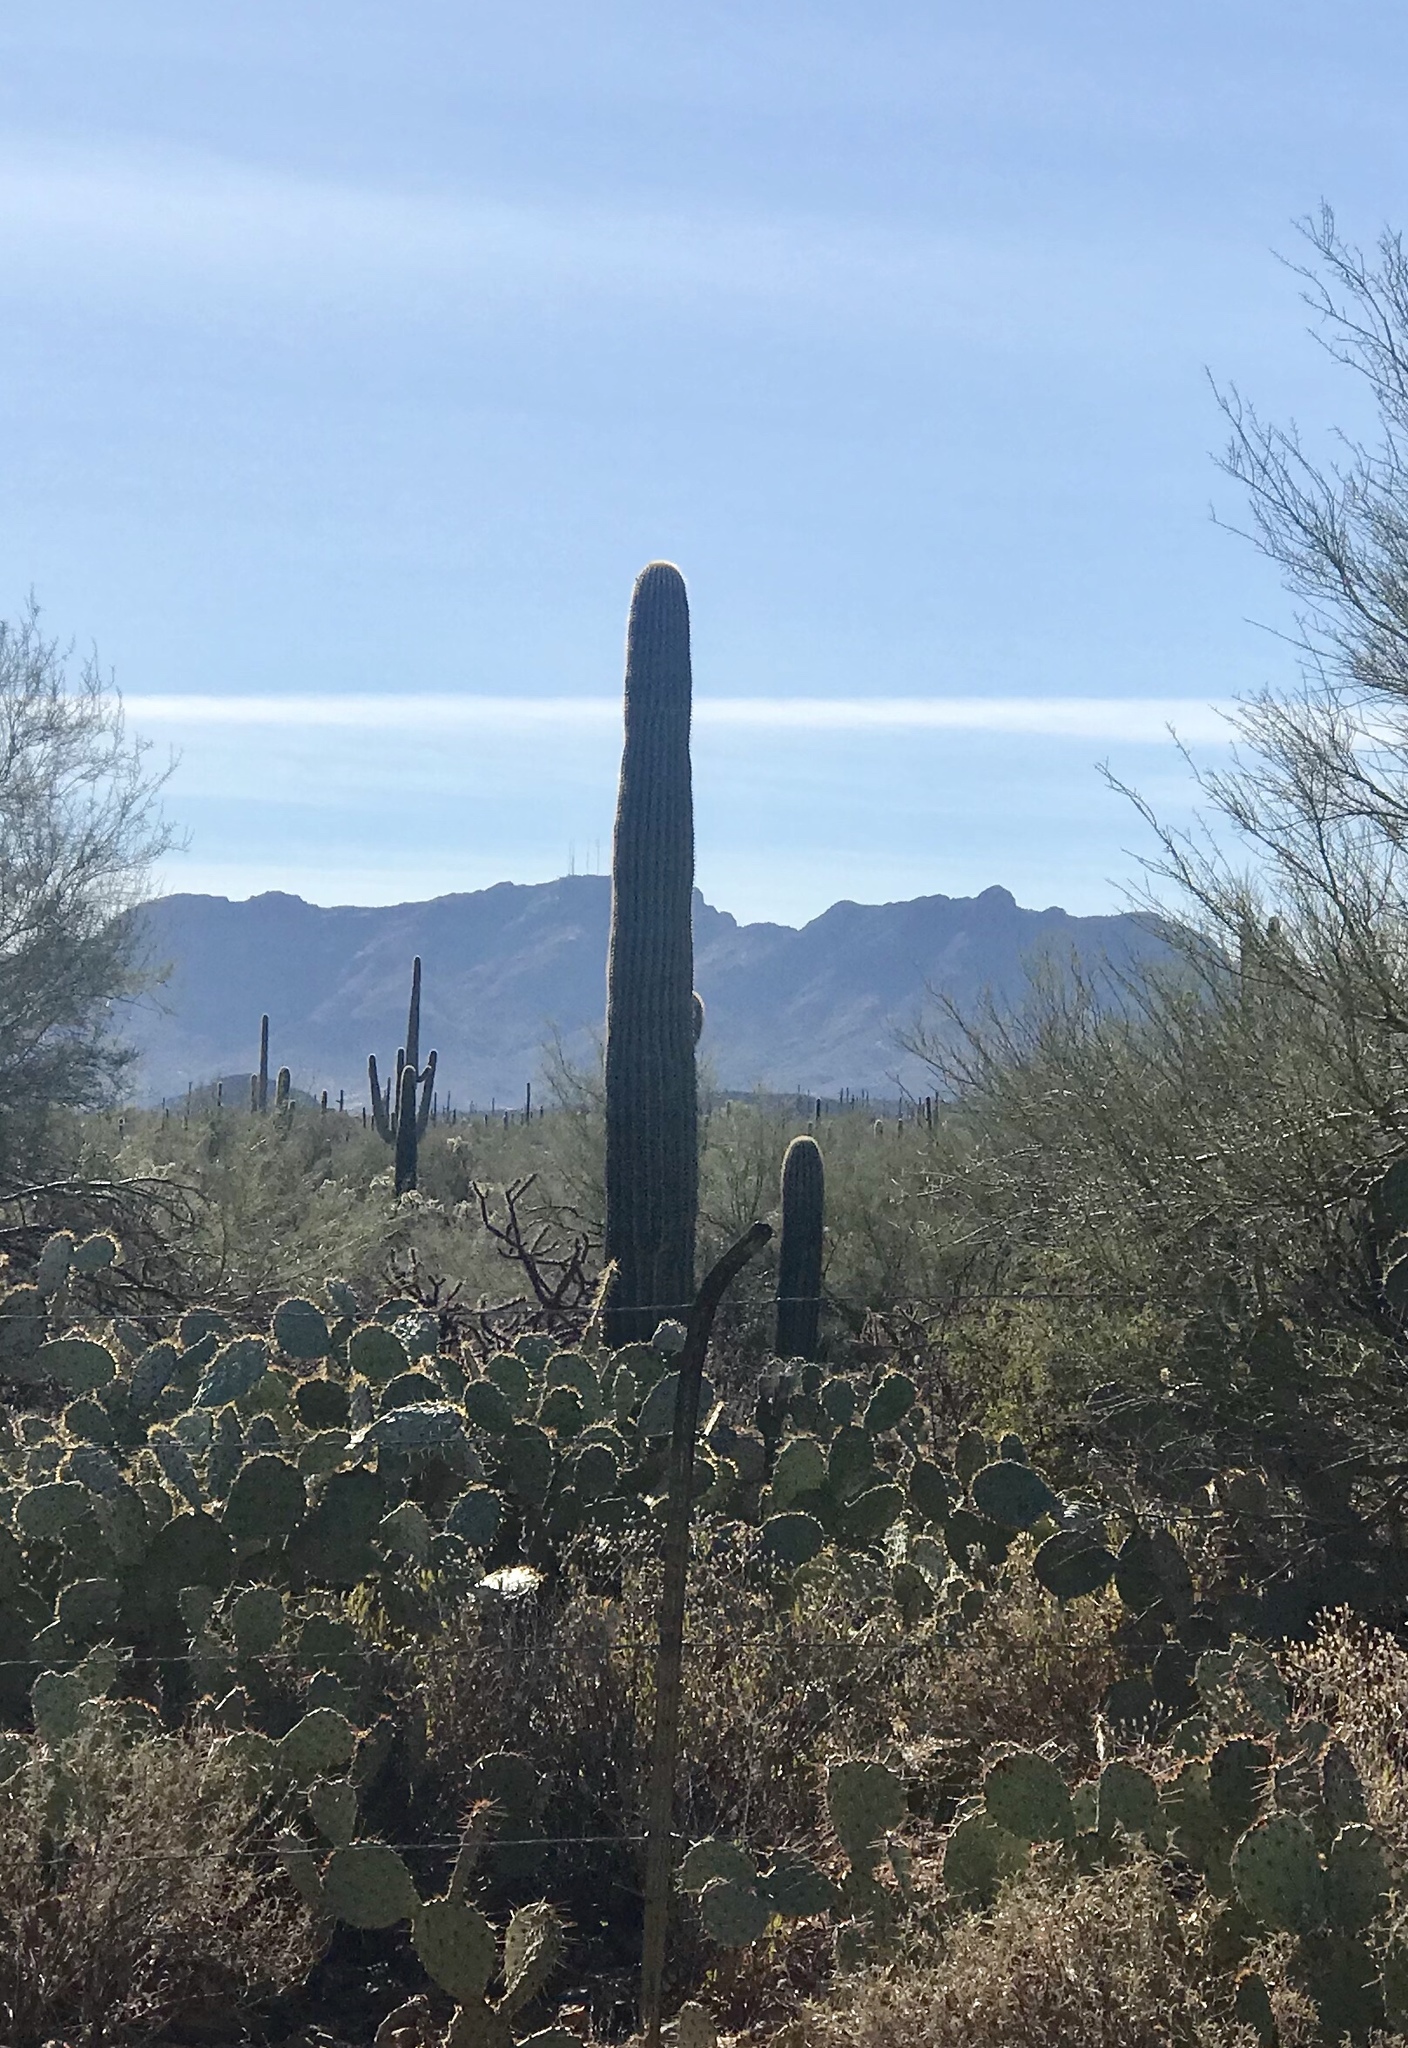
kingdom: Plantae
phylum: Tracheophyta
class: Magnoliopsida
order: Caryophyllales
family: Cactaceae
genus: Carnegiea
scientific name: Carnegiea gigantea
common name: Saguaro
